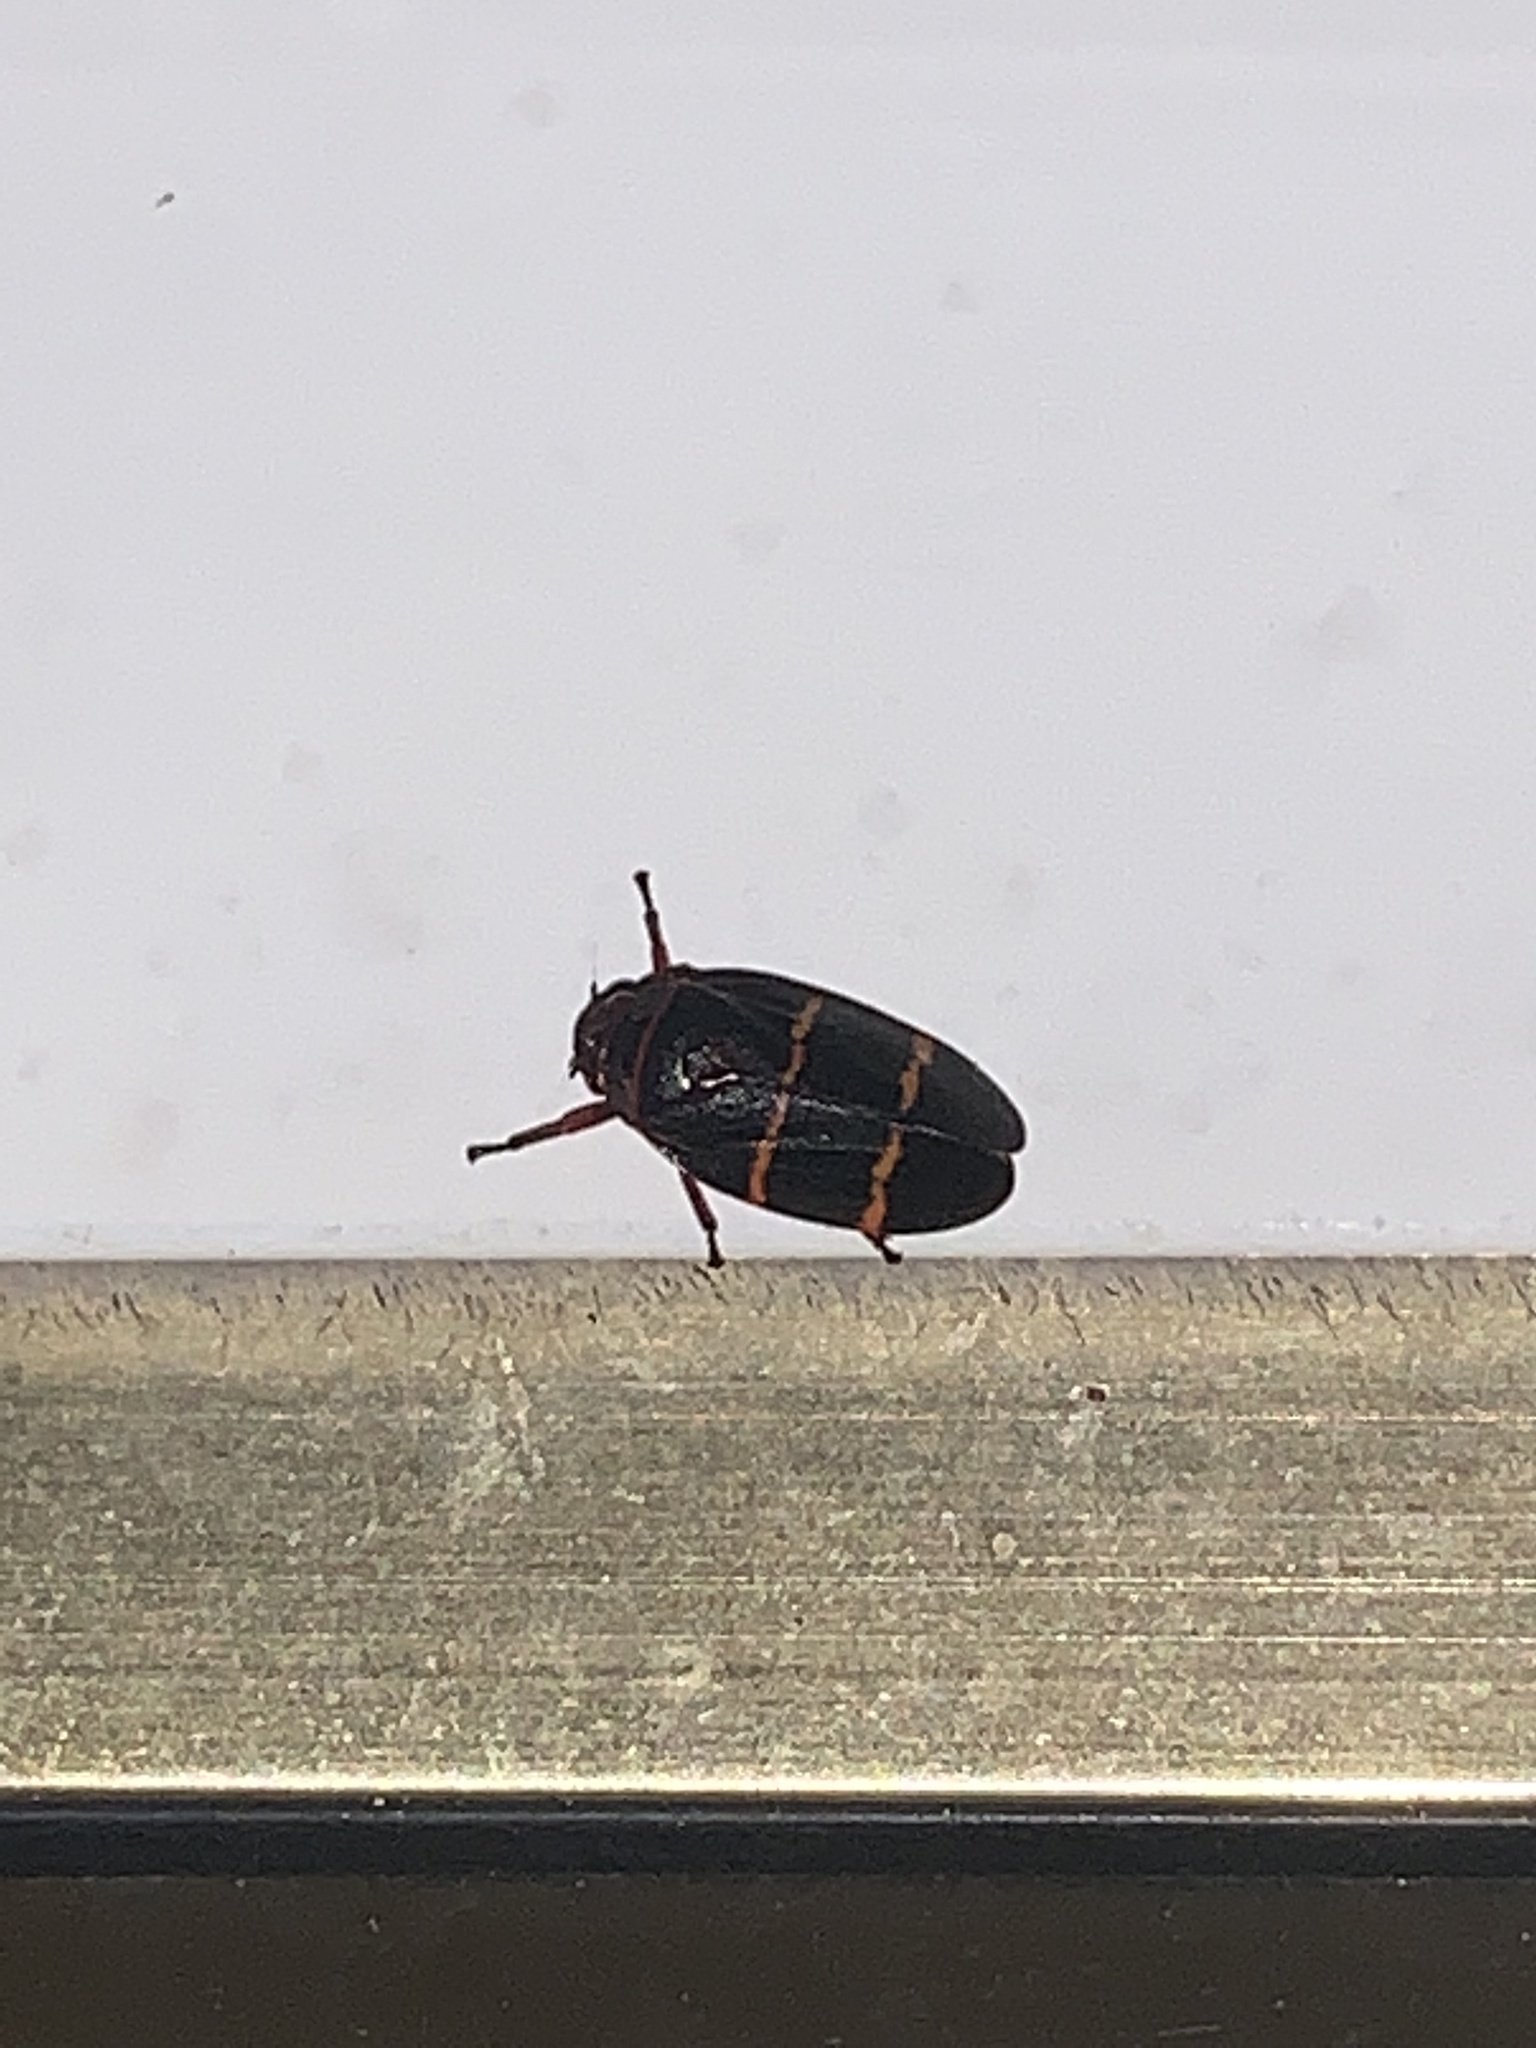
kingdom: Animalia
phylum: Arthropoda
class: Insecta
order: Hemiptera
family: Cercopidae
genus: Prosapia
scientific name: Prosapia bicincta
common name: Twolined spittlebug
